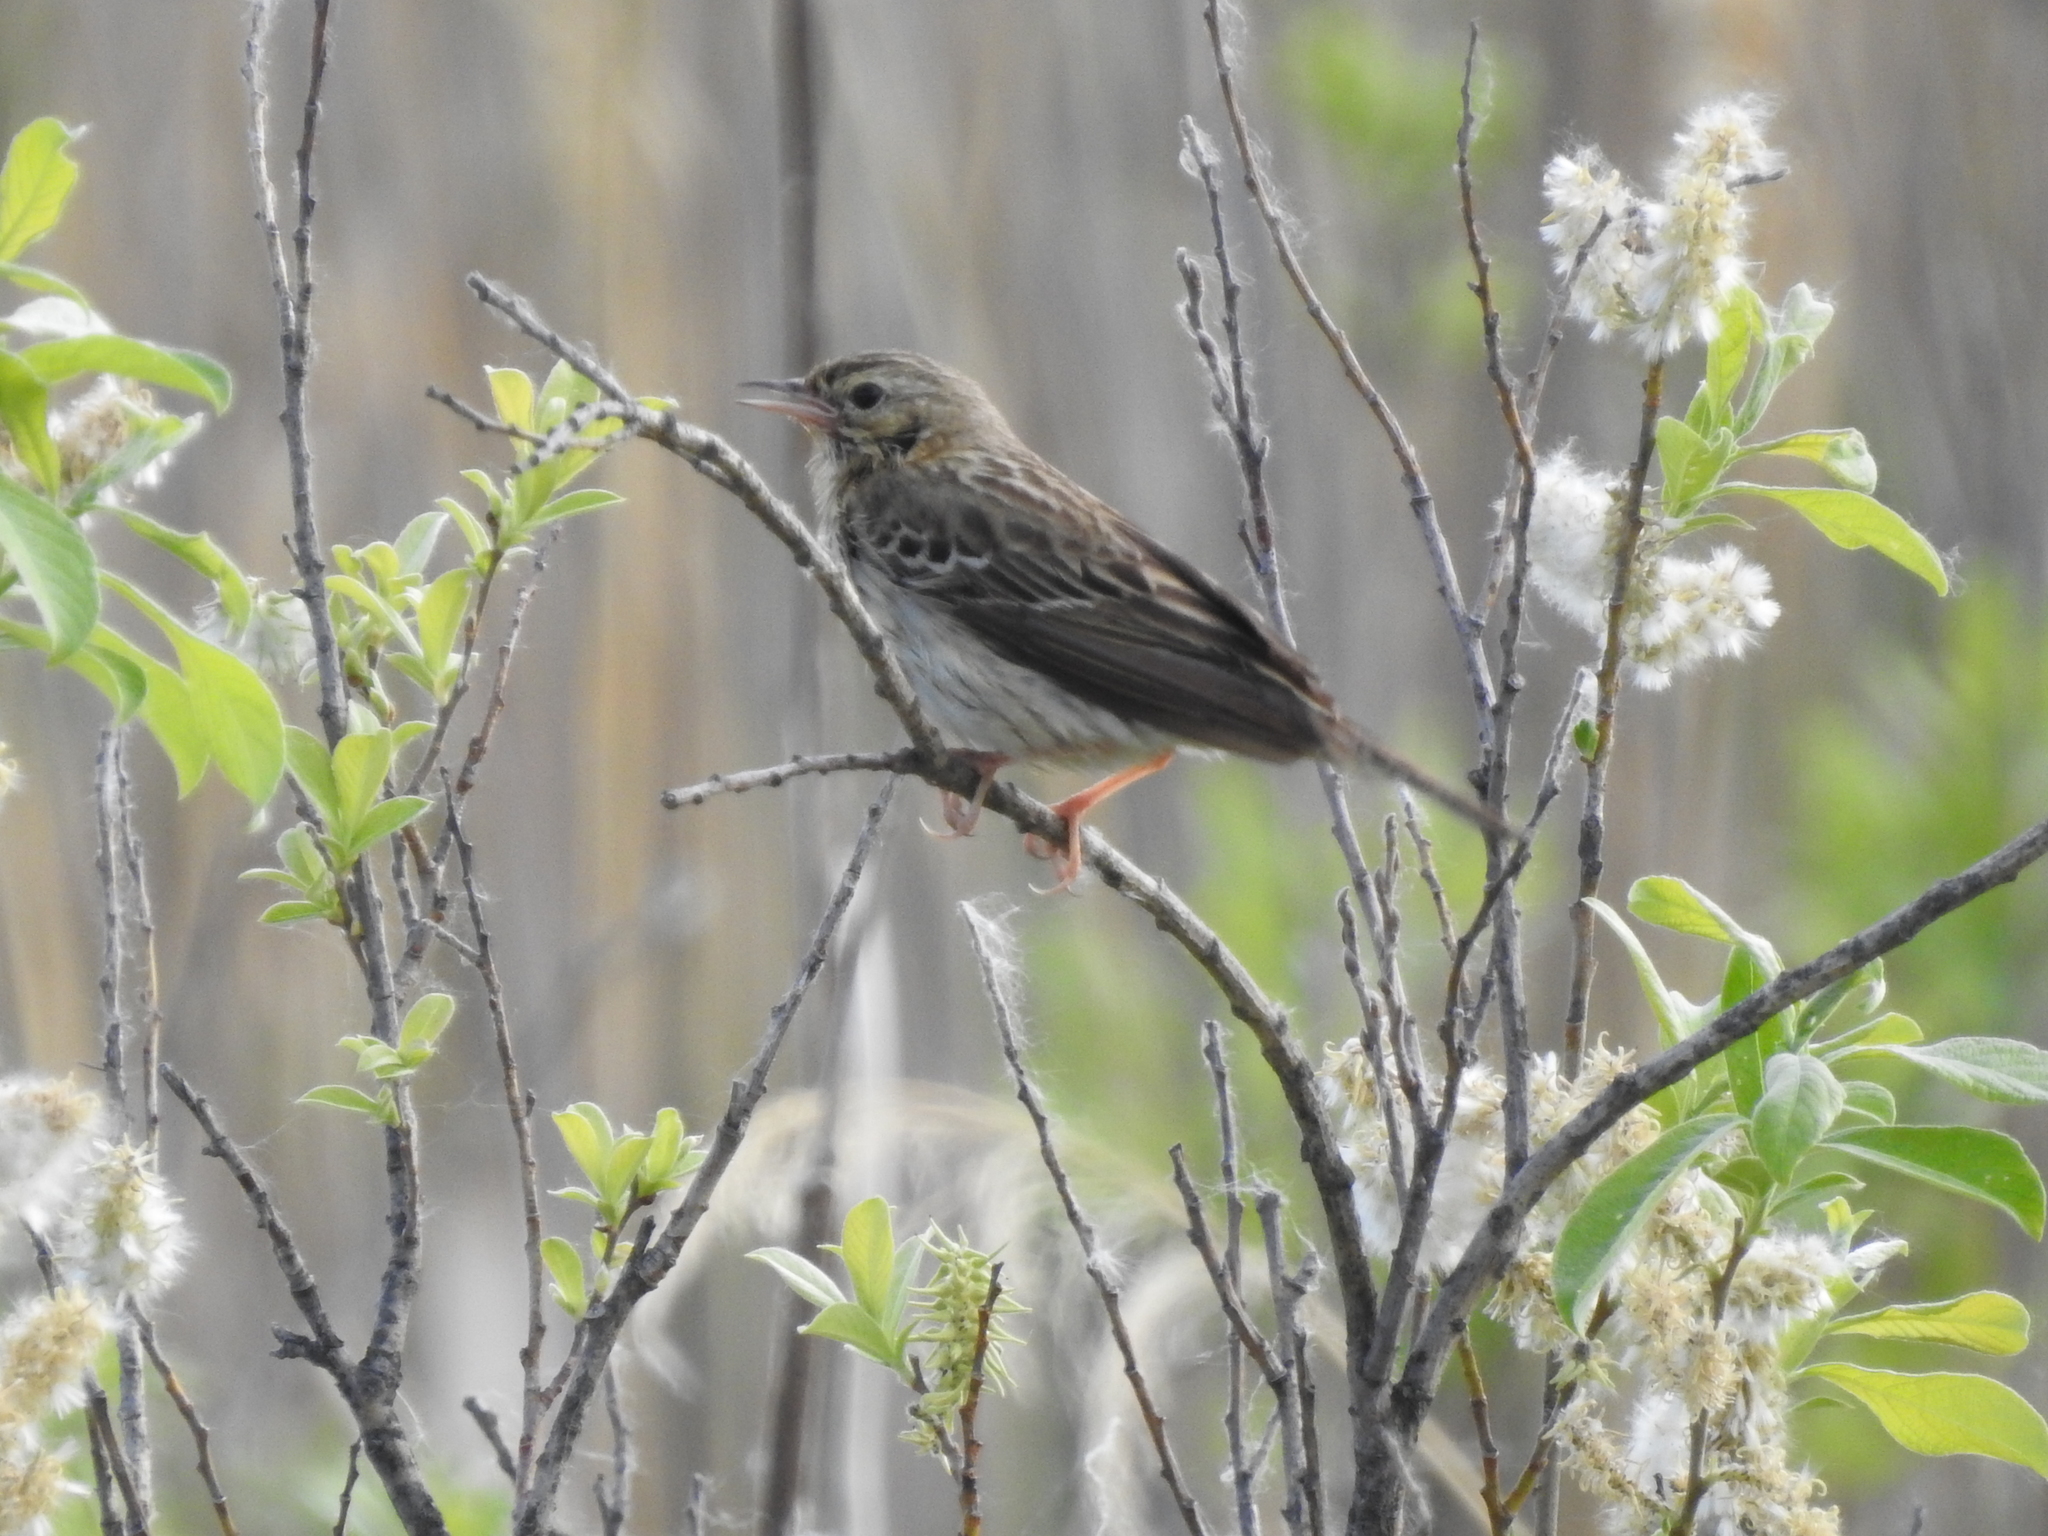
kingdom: Animalia
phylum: Chordata
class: Aves
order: Passeriformes
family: Motacillidae
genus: Anthus
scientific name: Anthus trivialis
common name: Tree pipit
